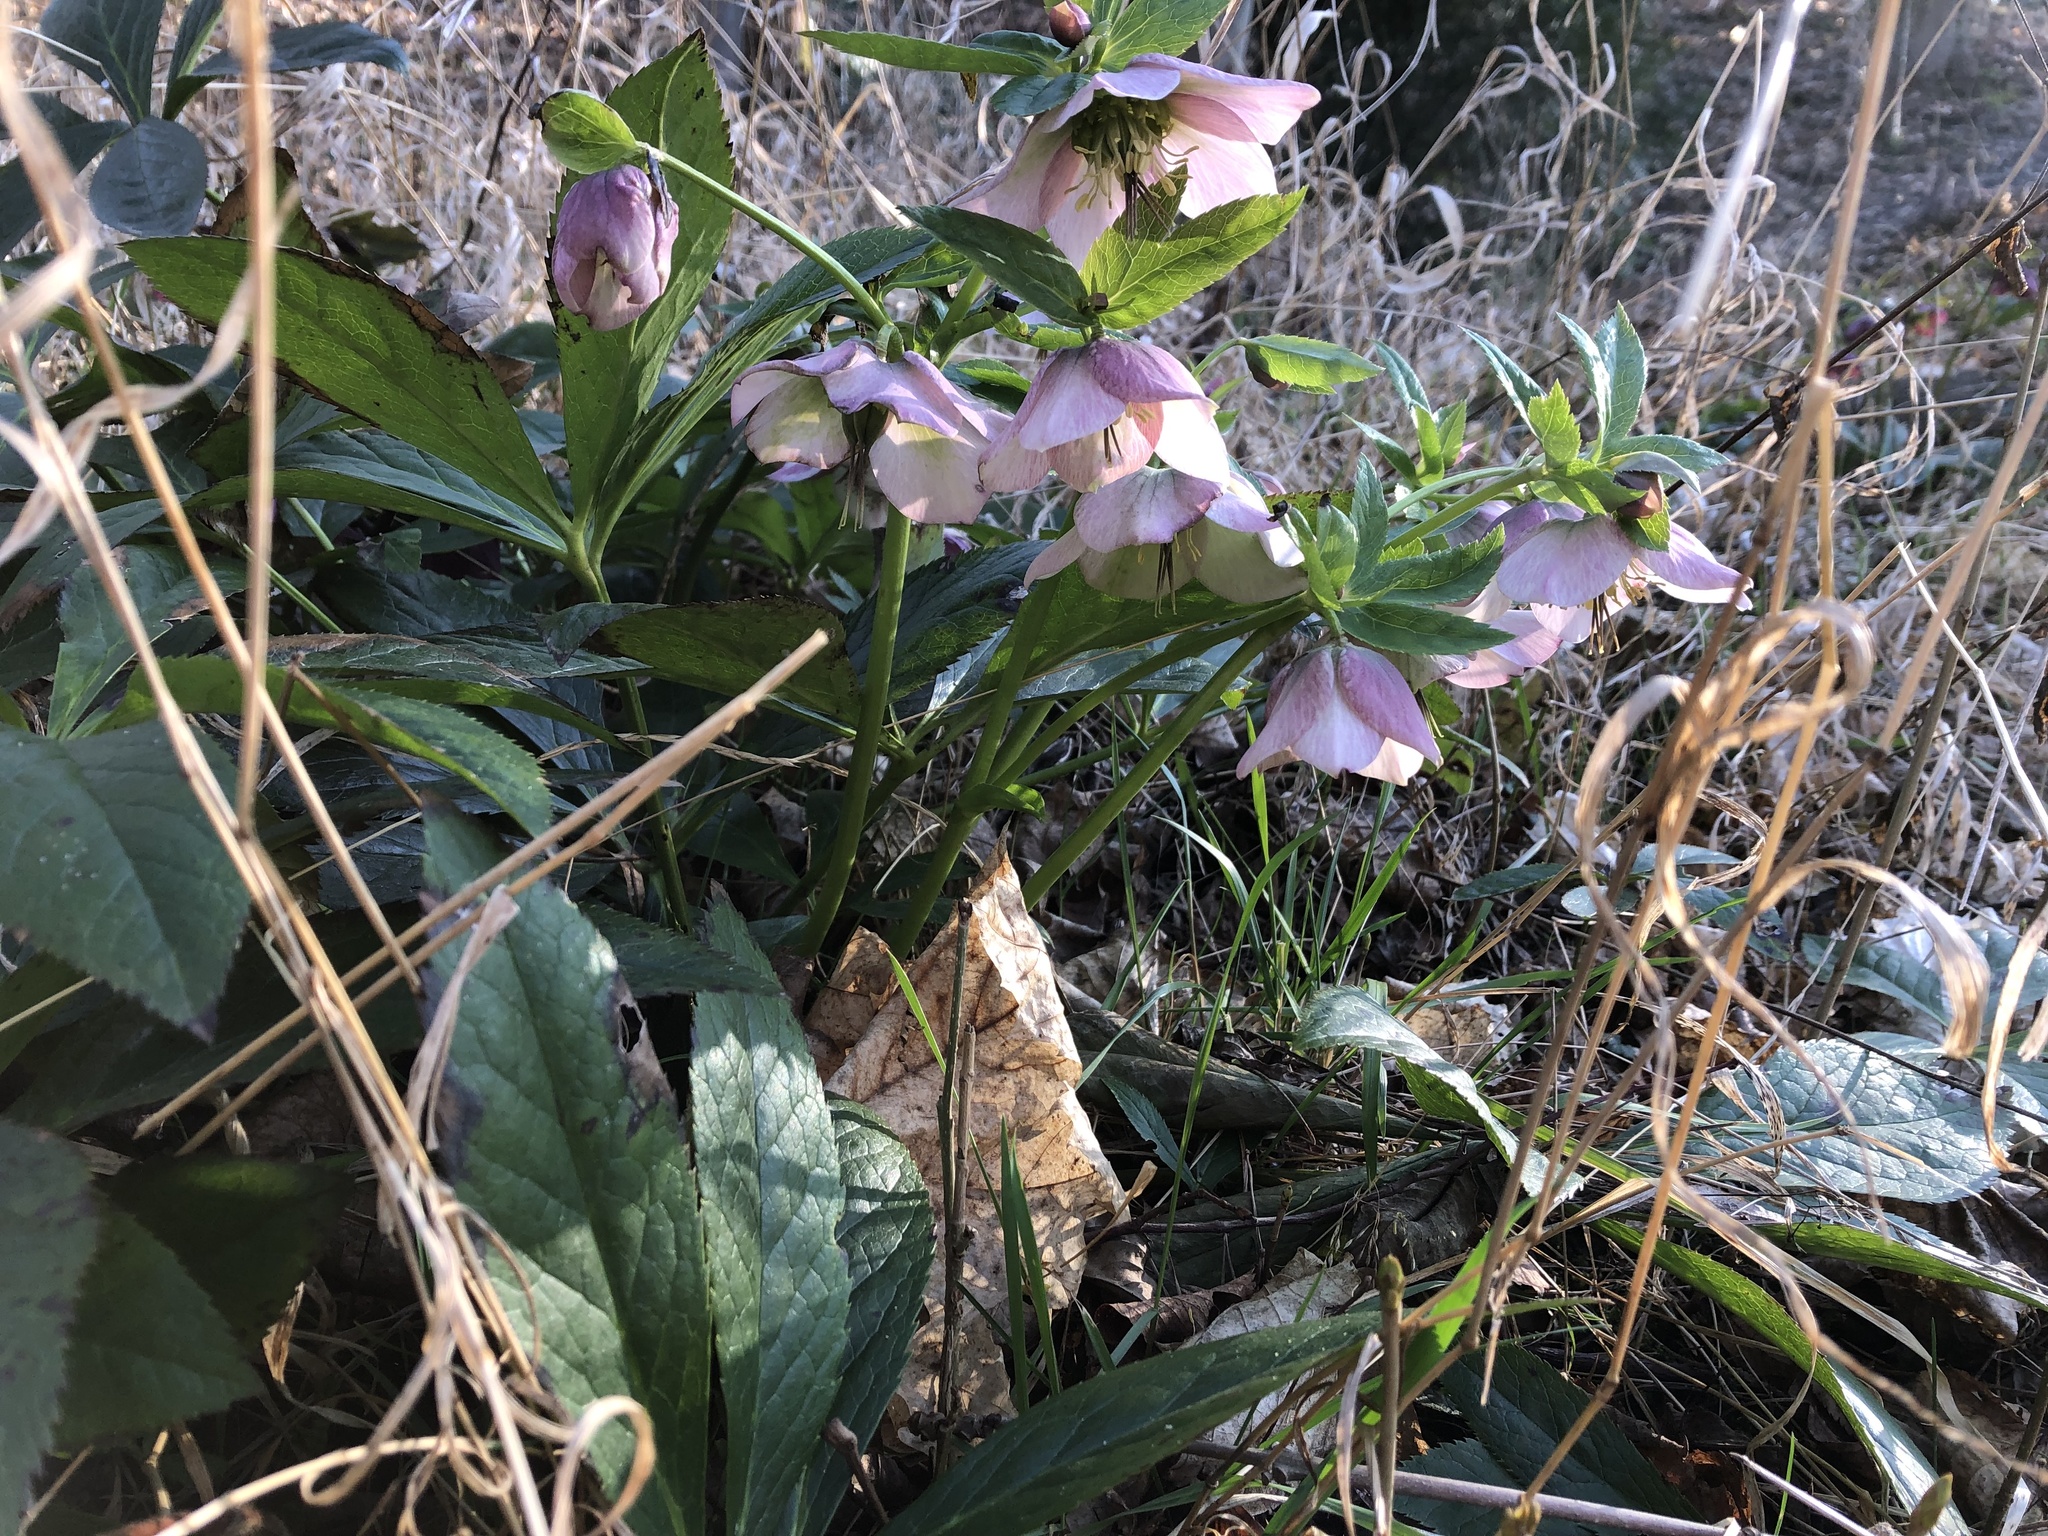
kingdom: Plantae
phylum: Tracheophyta
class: Magnoliopsida
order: Ranunculales
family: Ranunculaceae
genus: Helleborus
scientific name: Helleborus orientalis
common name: Lenten-rose
